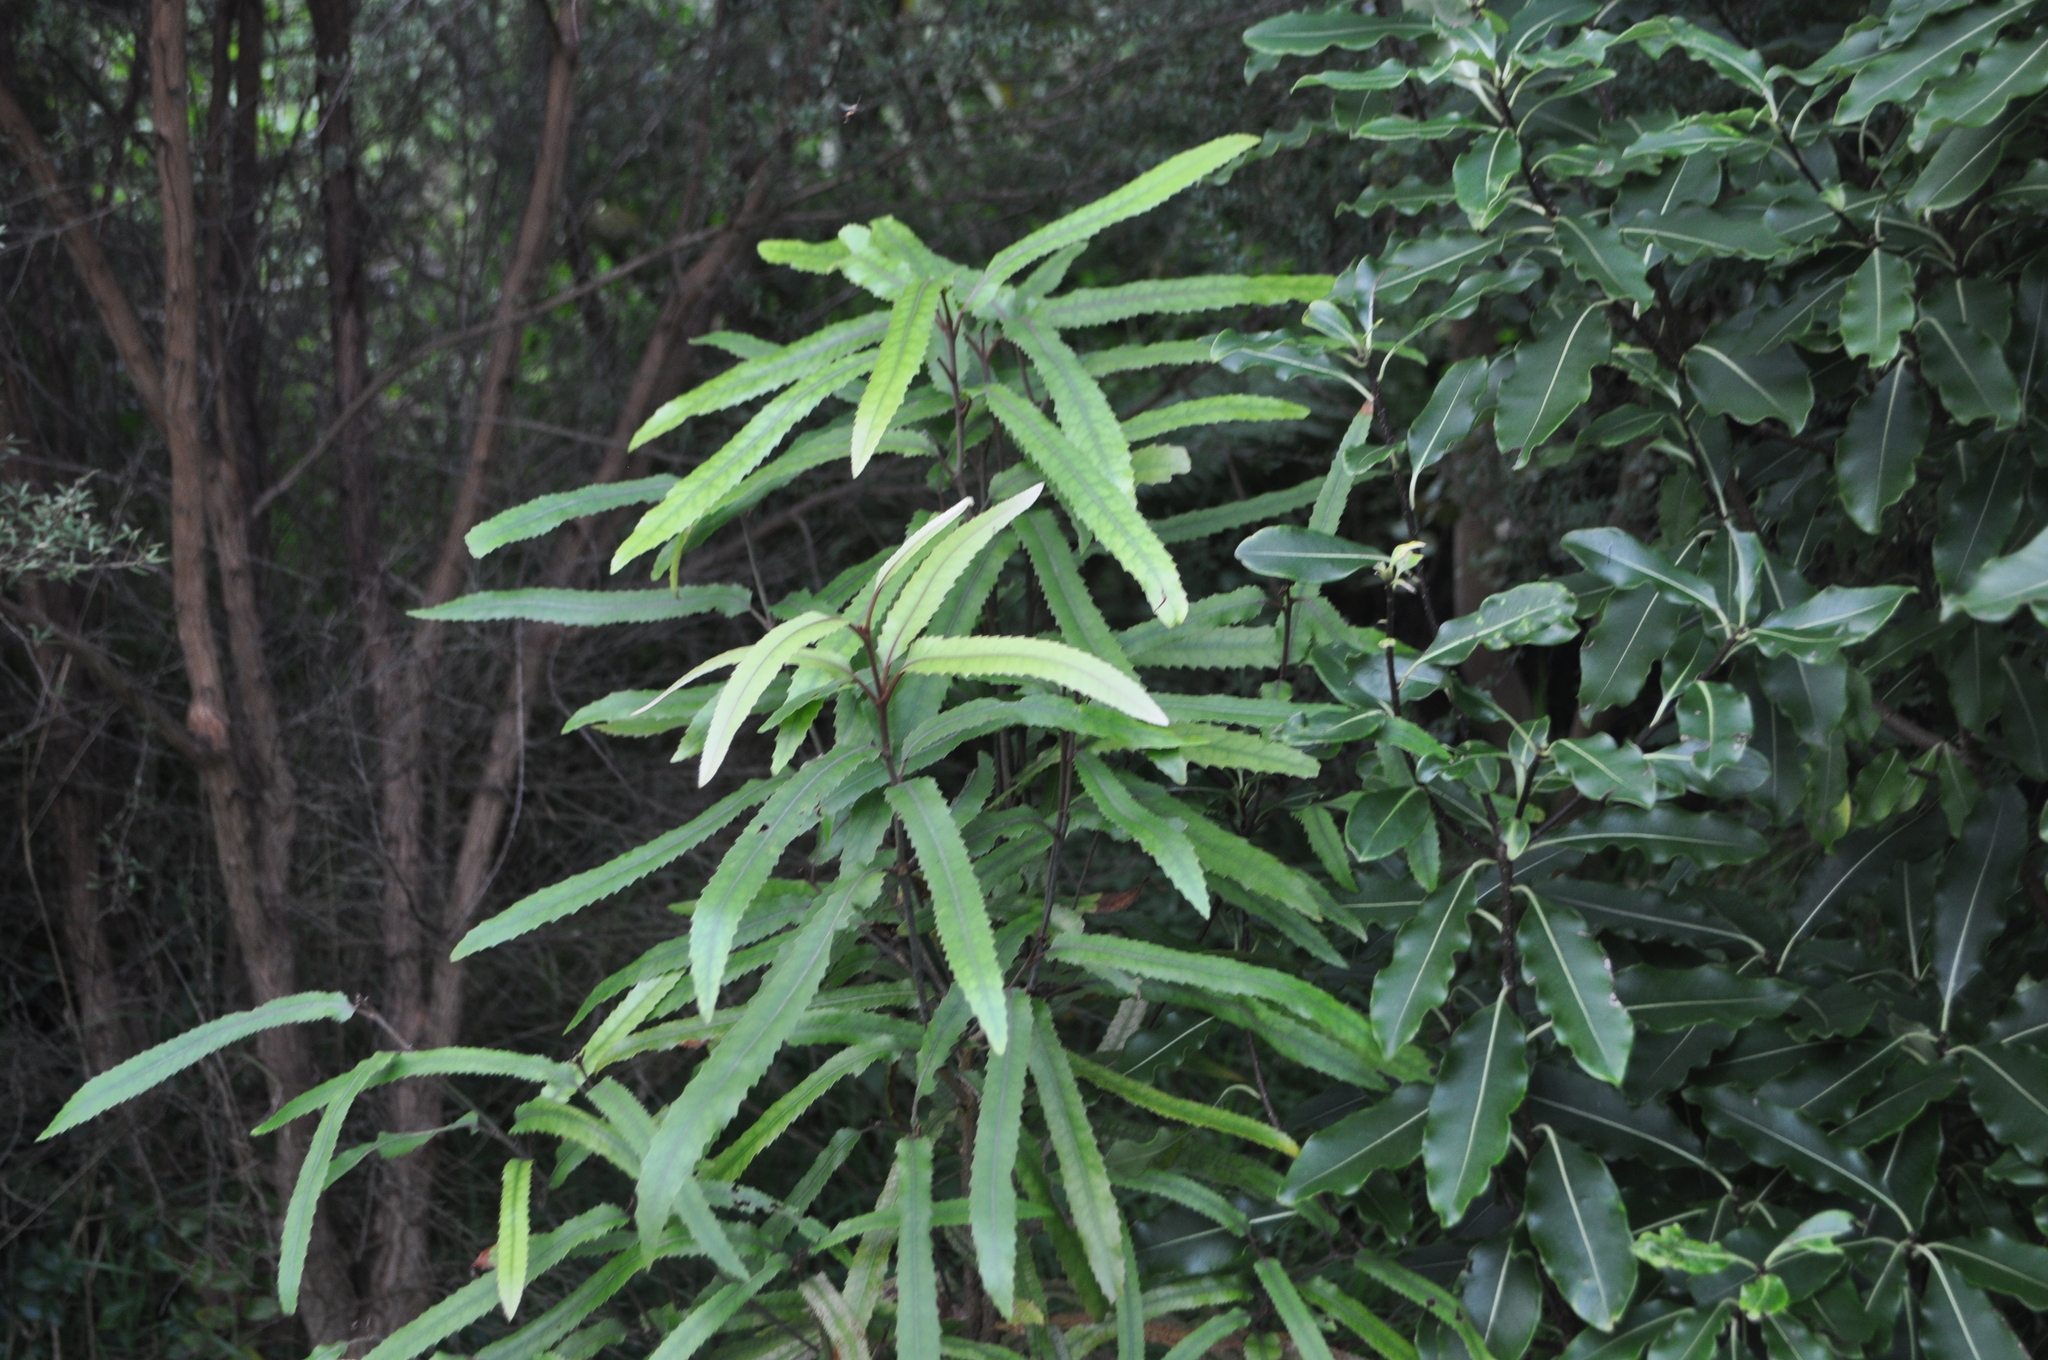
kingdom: Plantae
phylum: Tracheophyta
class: Magnoliopsida
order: Proteales
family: Proteaceae
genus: Knightia
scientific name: Knightia excelsa
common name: New zealand-honeysuckle
